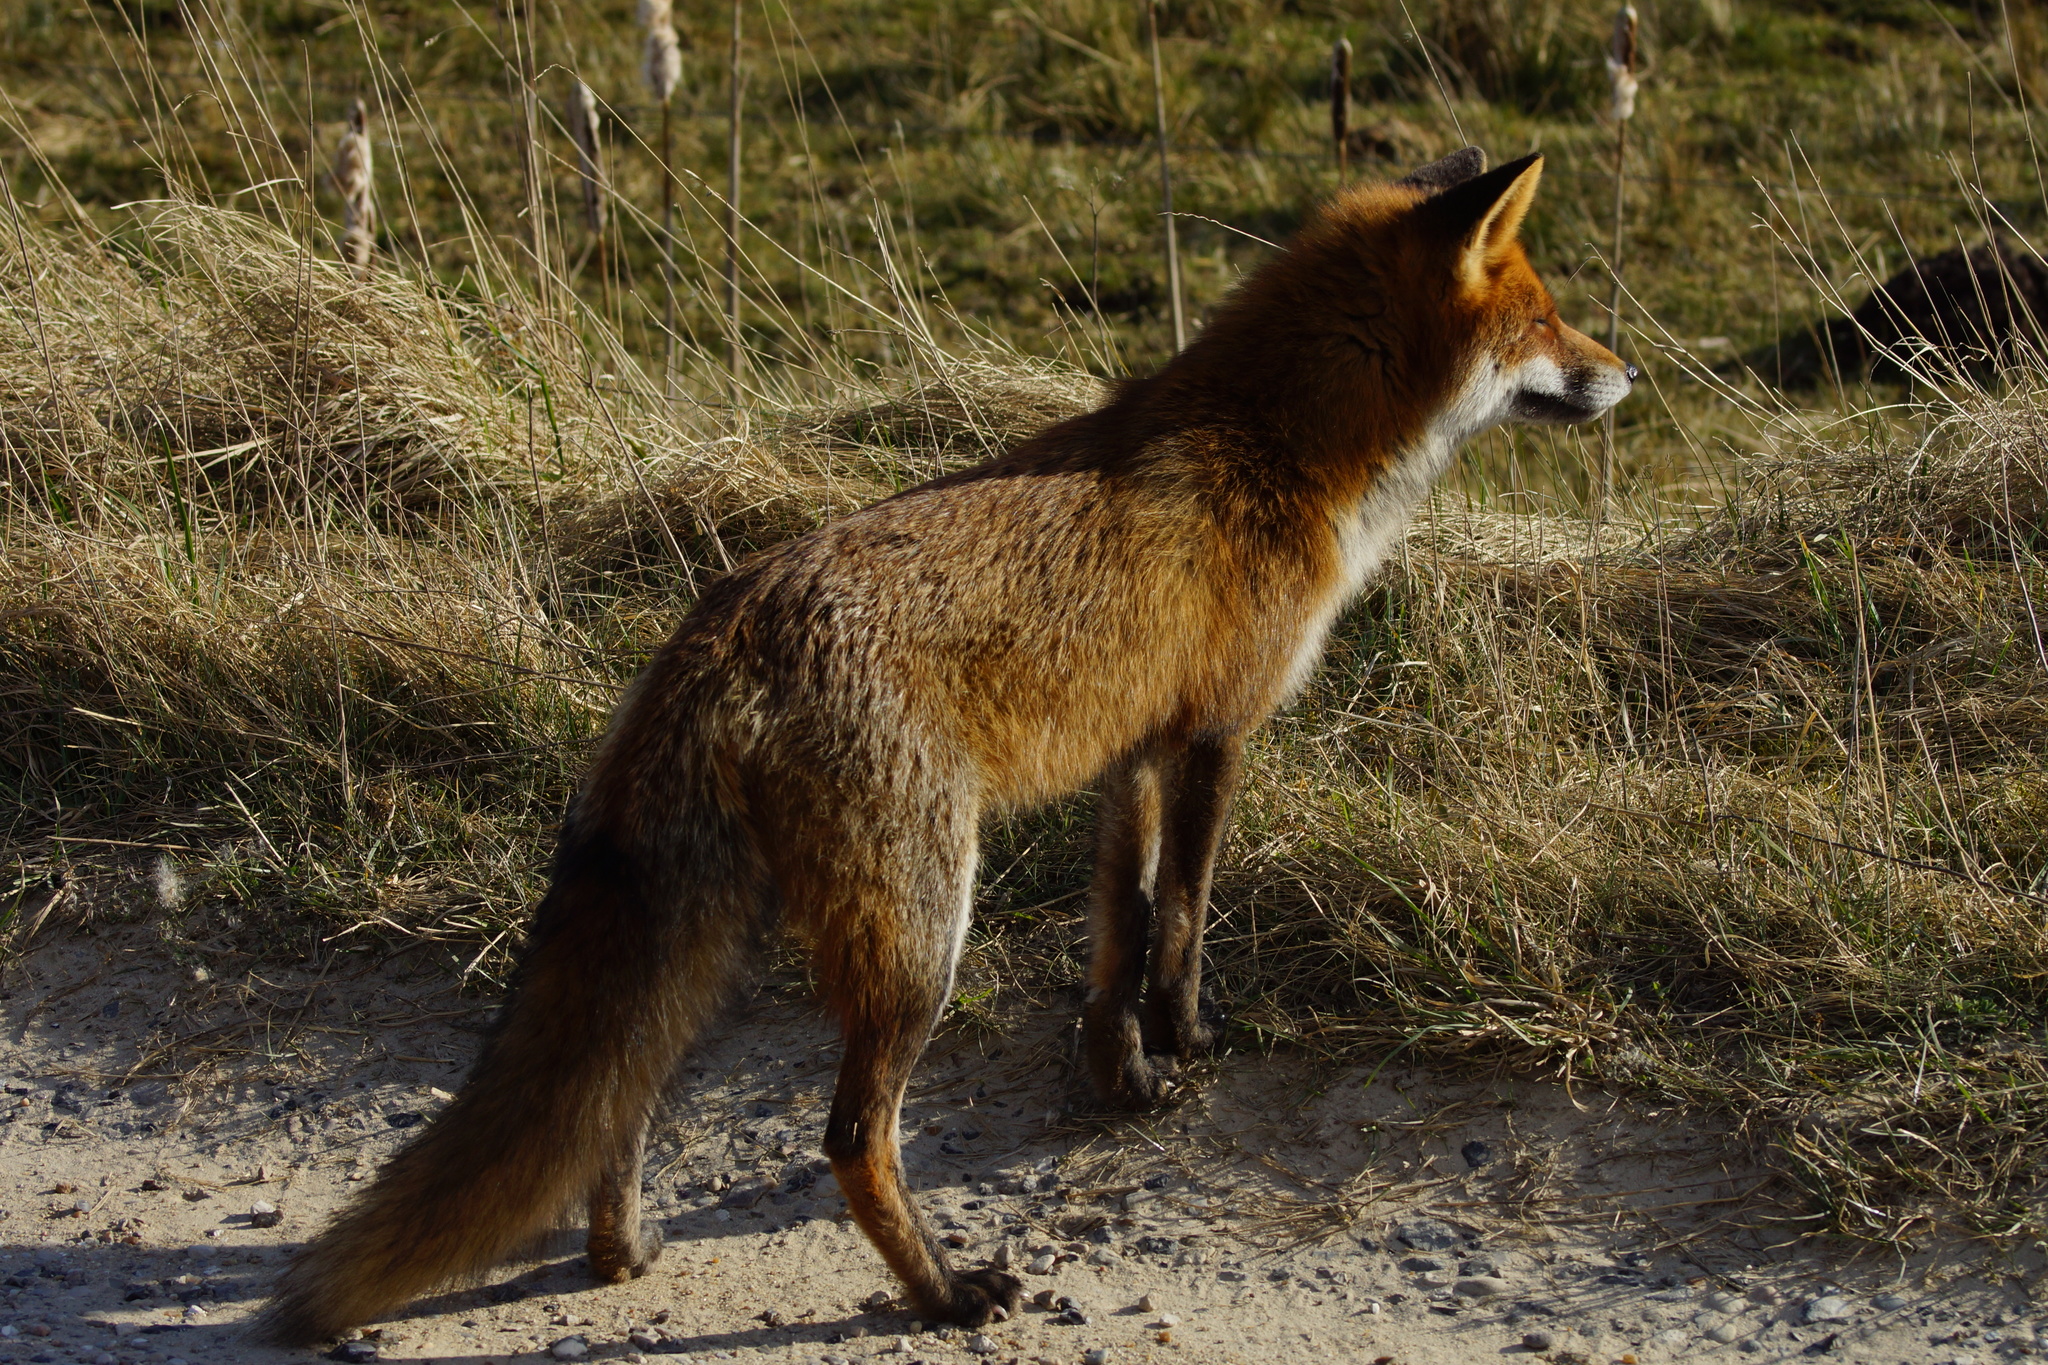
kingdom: Animalia
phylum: Chordata
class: Mammalia
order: Carnivora
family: Canidae
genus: Vulpes
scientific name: Vulpes vulpes
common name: Red fox
